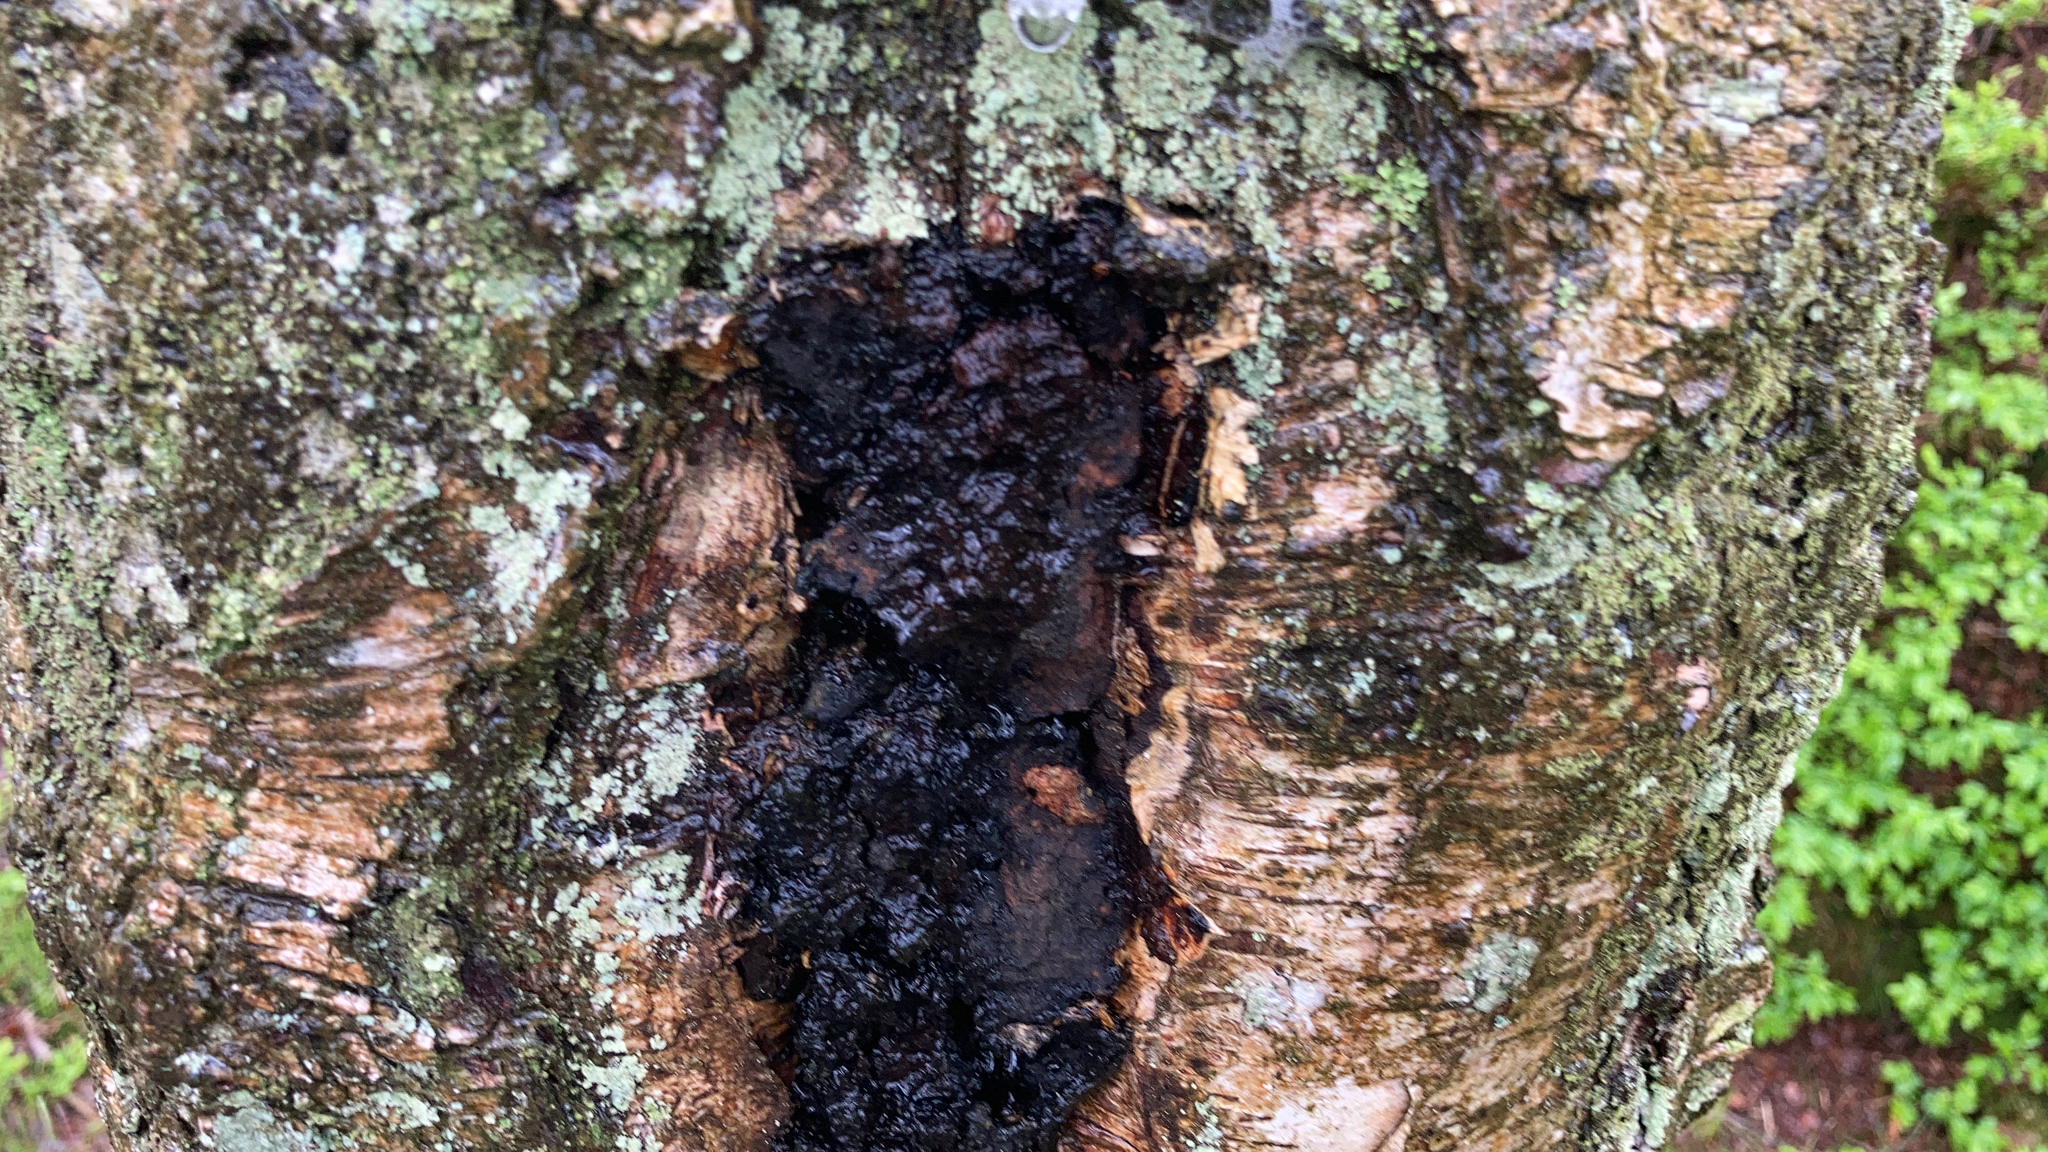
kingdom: Fungi
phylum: Basidiomycota
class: Agaricomycetes
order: Hymenochaetales
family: Hymenochaetaceae
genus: Inonotus
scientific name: Inonotus obliquus
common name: Chaga
